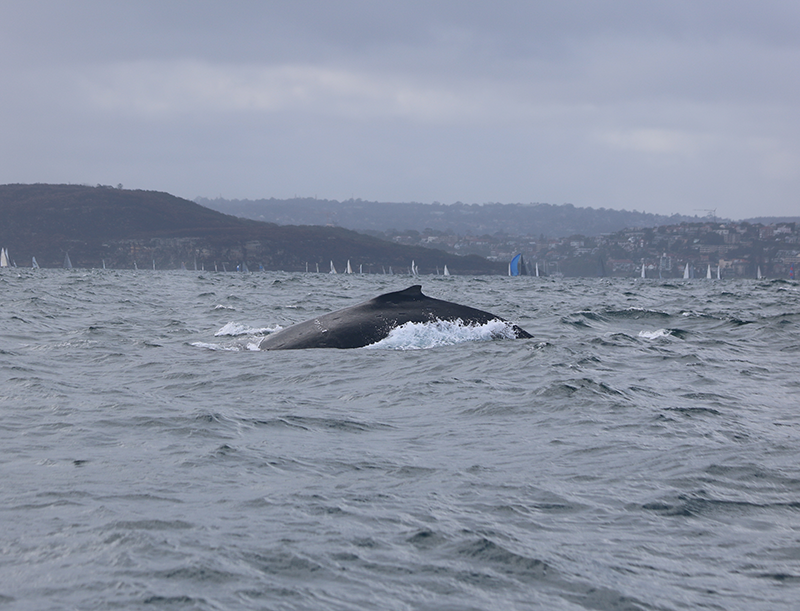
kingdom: Animalia
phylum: Chordata
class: Mammalia
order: Cetacea
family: Balaenopteridae
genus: Megaptera
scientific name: Megaptera novaeangliae
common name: Humpback whale
